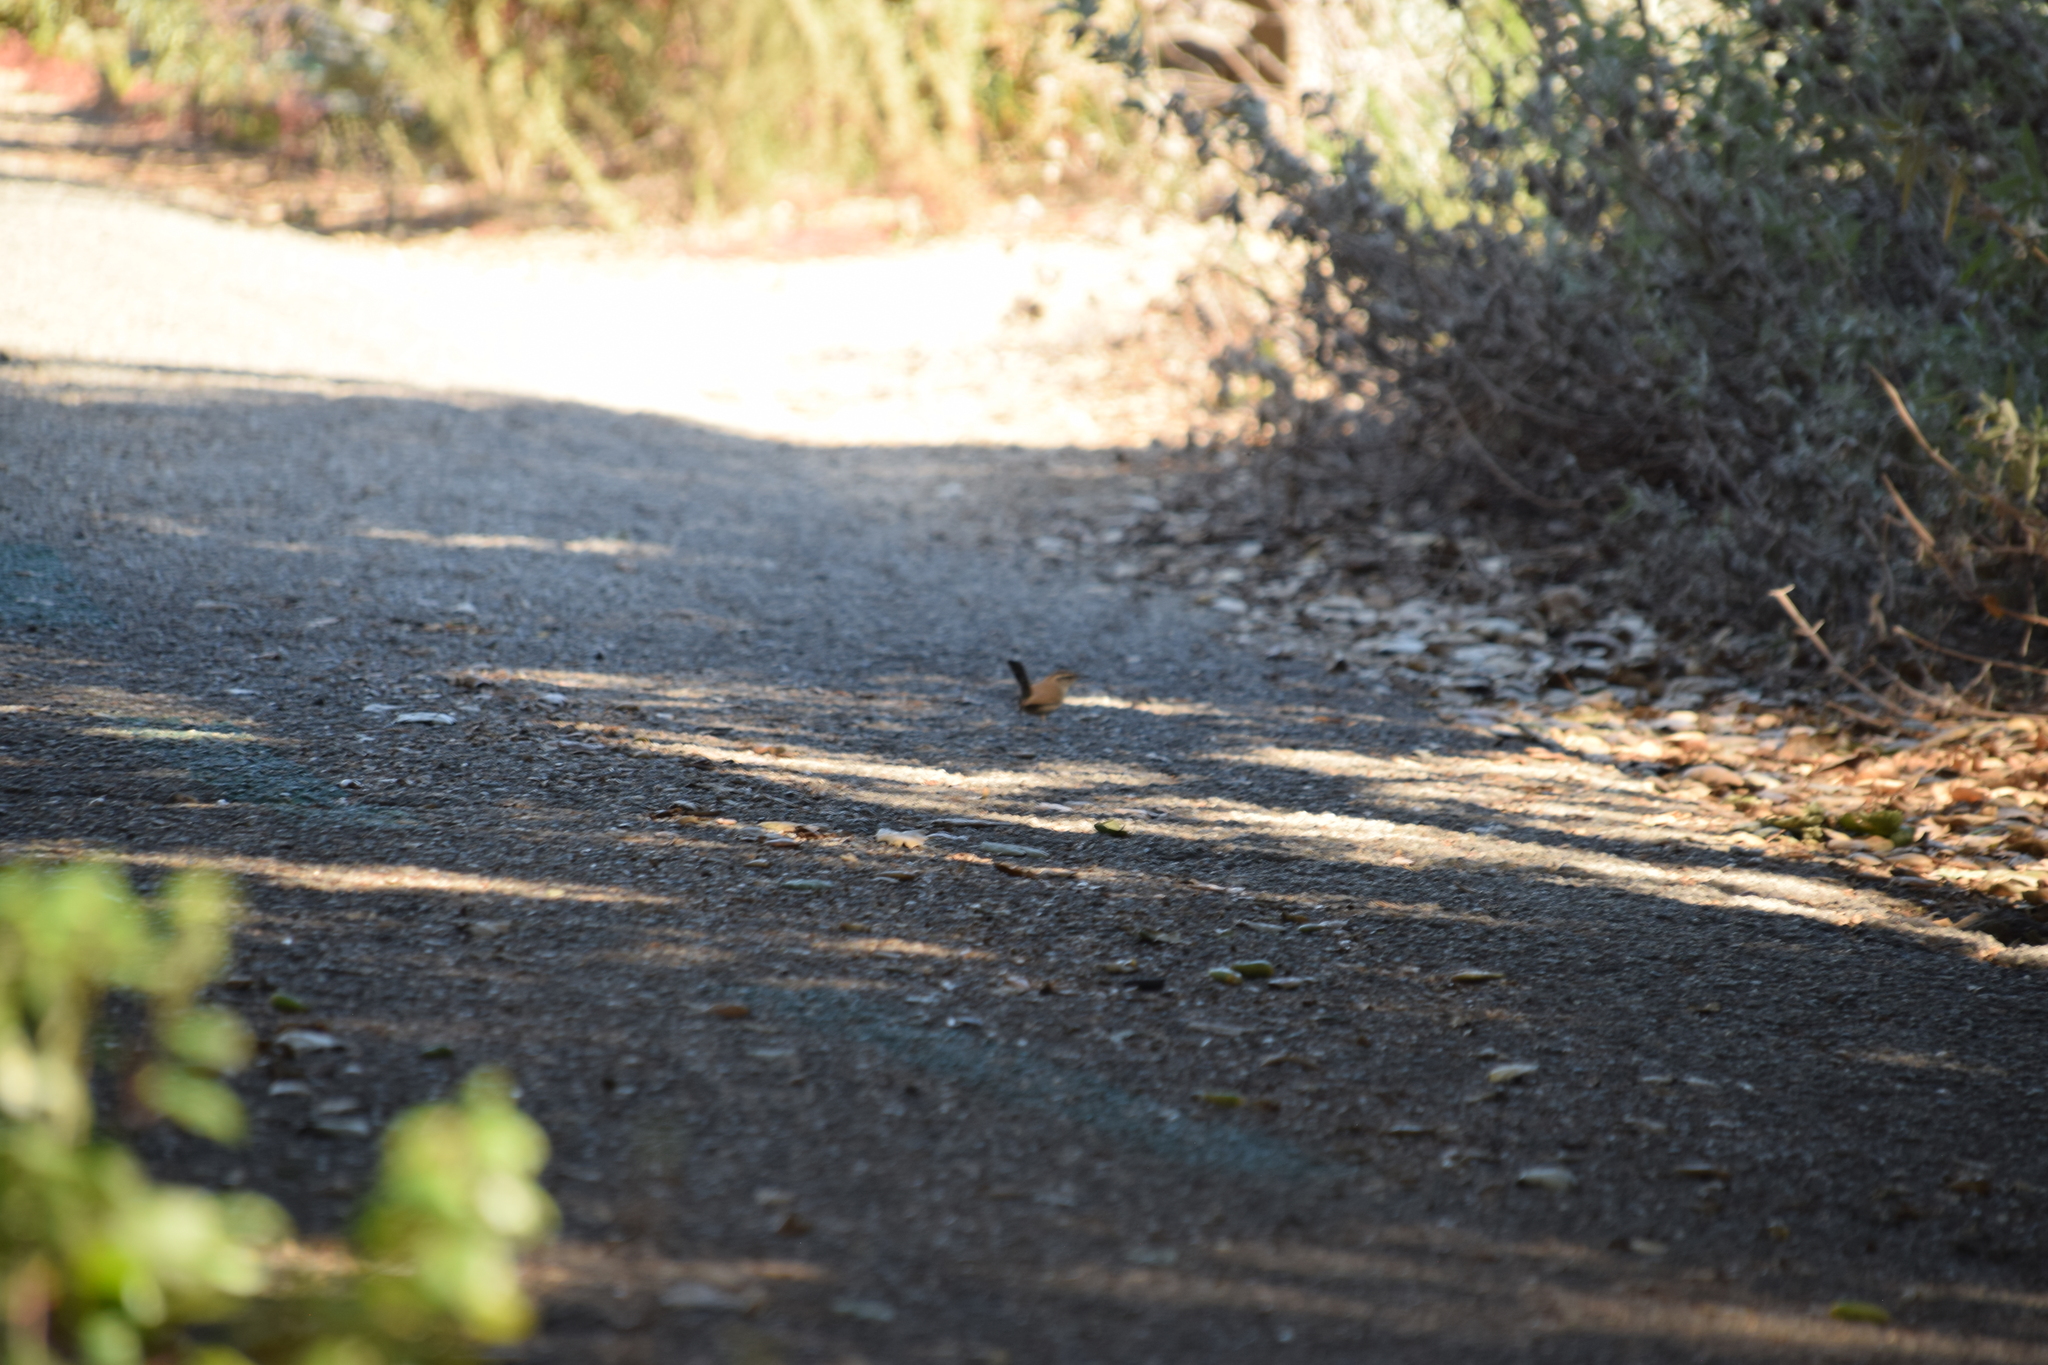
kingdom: Animalia
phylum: Chordata
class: Aves
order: Passeriformes
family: Troglodytidae
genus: Thryomanes
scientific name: Thryomanes bewickii
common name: Bewick's wren
